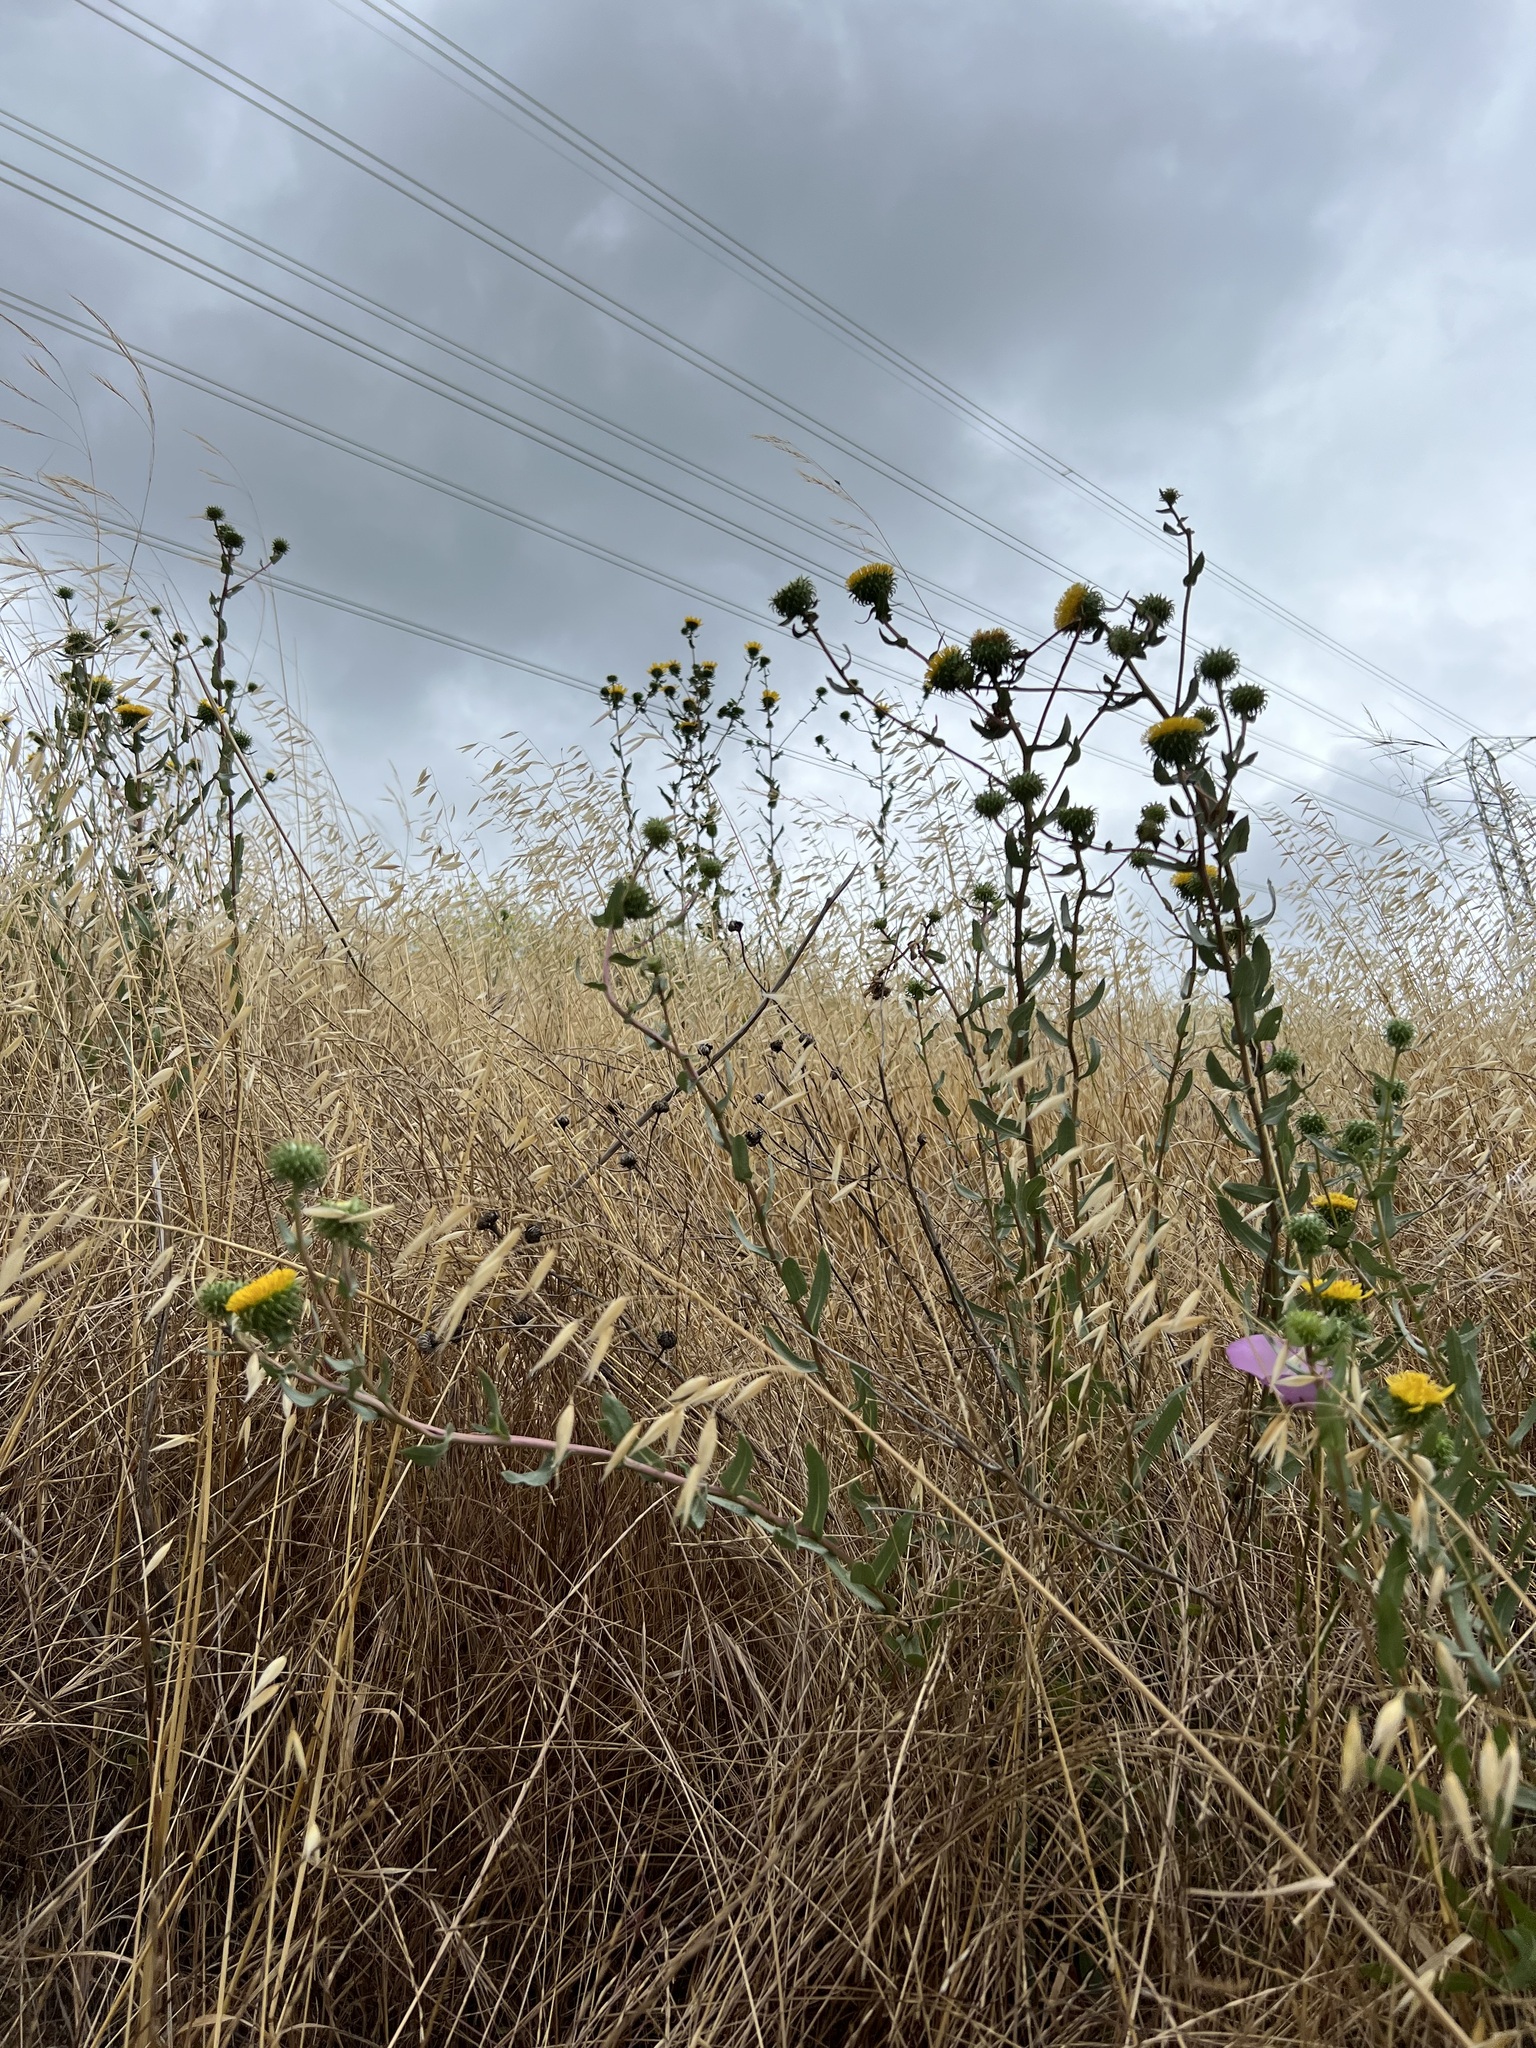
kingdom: Plantae
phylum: Tracheophyta
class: Magnoliopsida
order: Asterales
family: Asteraceae
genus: Grindelia
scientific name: Grindelia hirsutula
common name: Hairy gumweed
